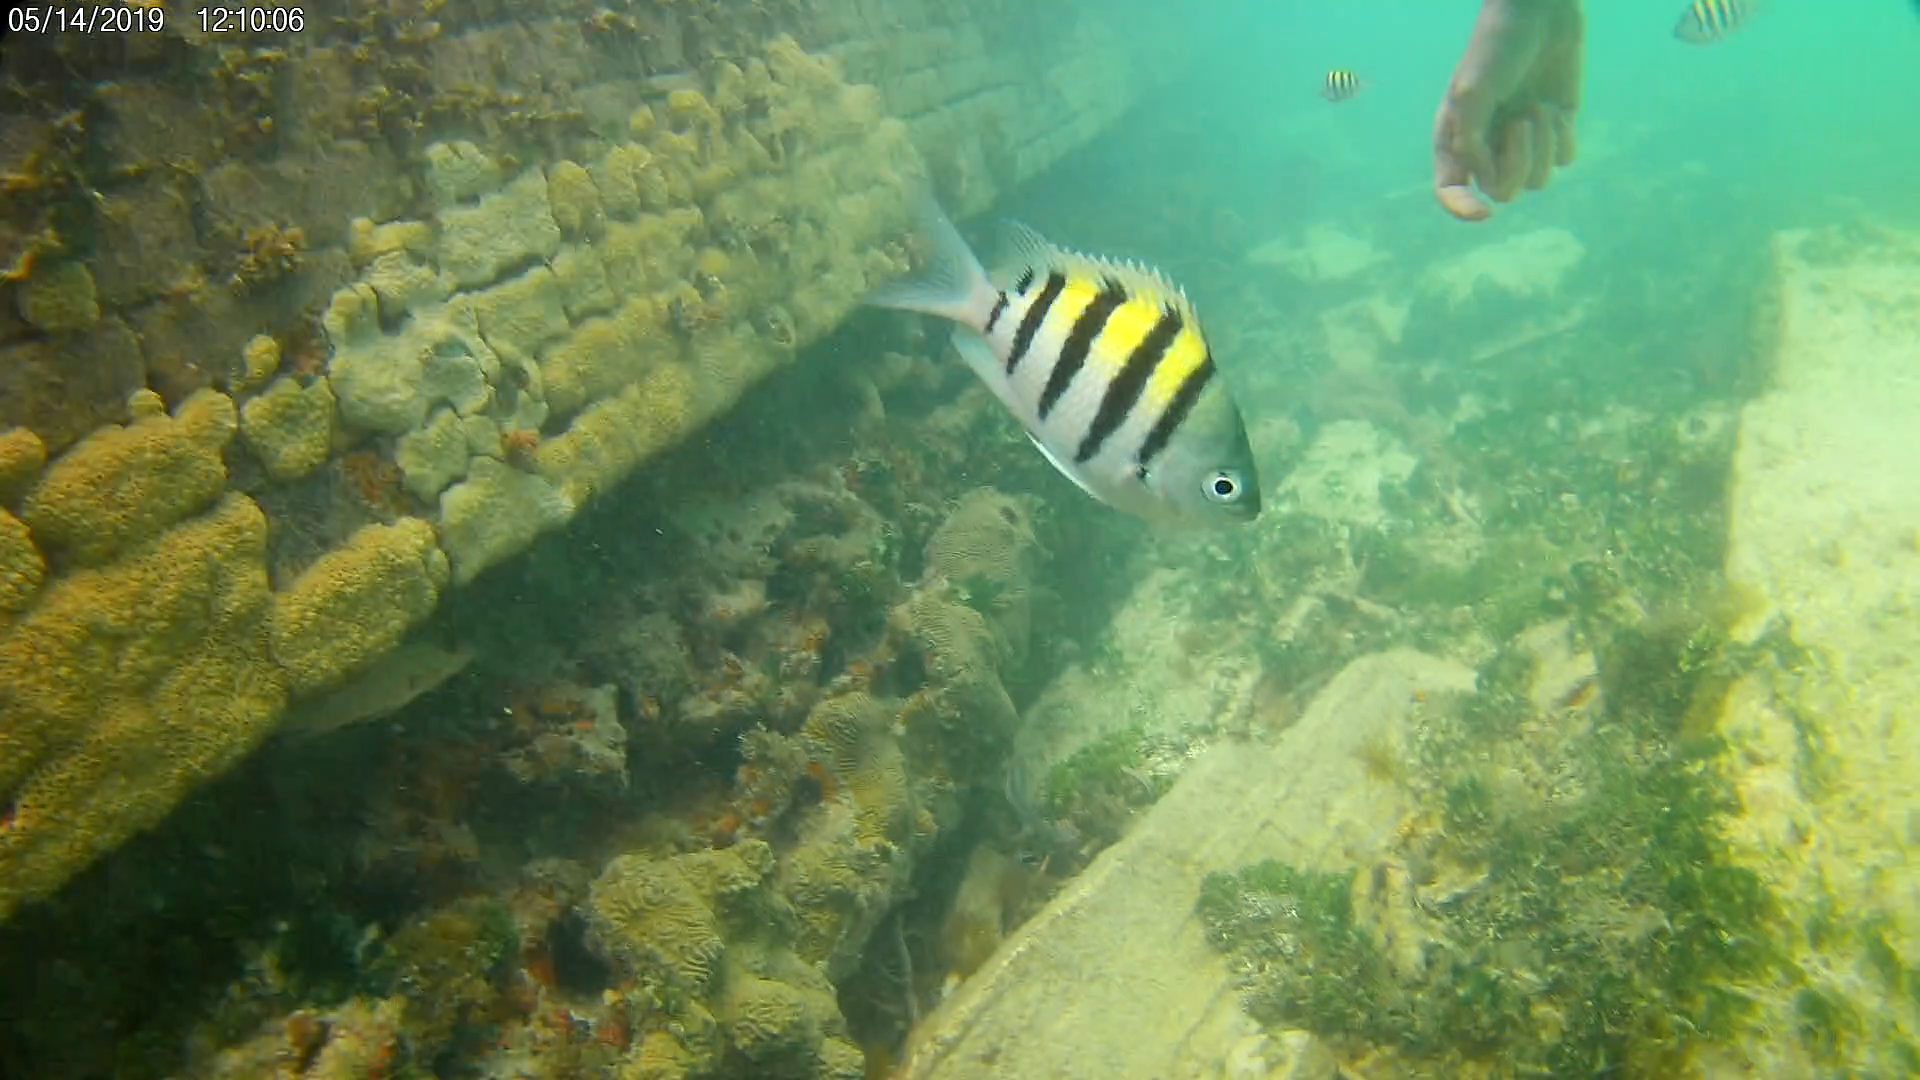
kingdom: Animalia
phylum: Chordata
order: Perciformes
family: Pomacentridae
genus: Abudefduf
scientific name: Abudefduf saxatilis
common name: Sergeant major
